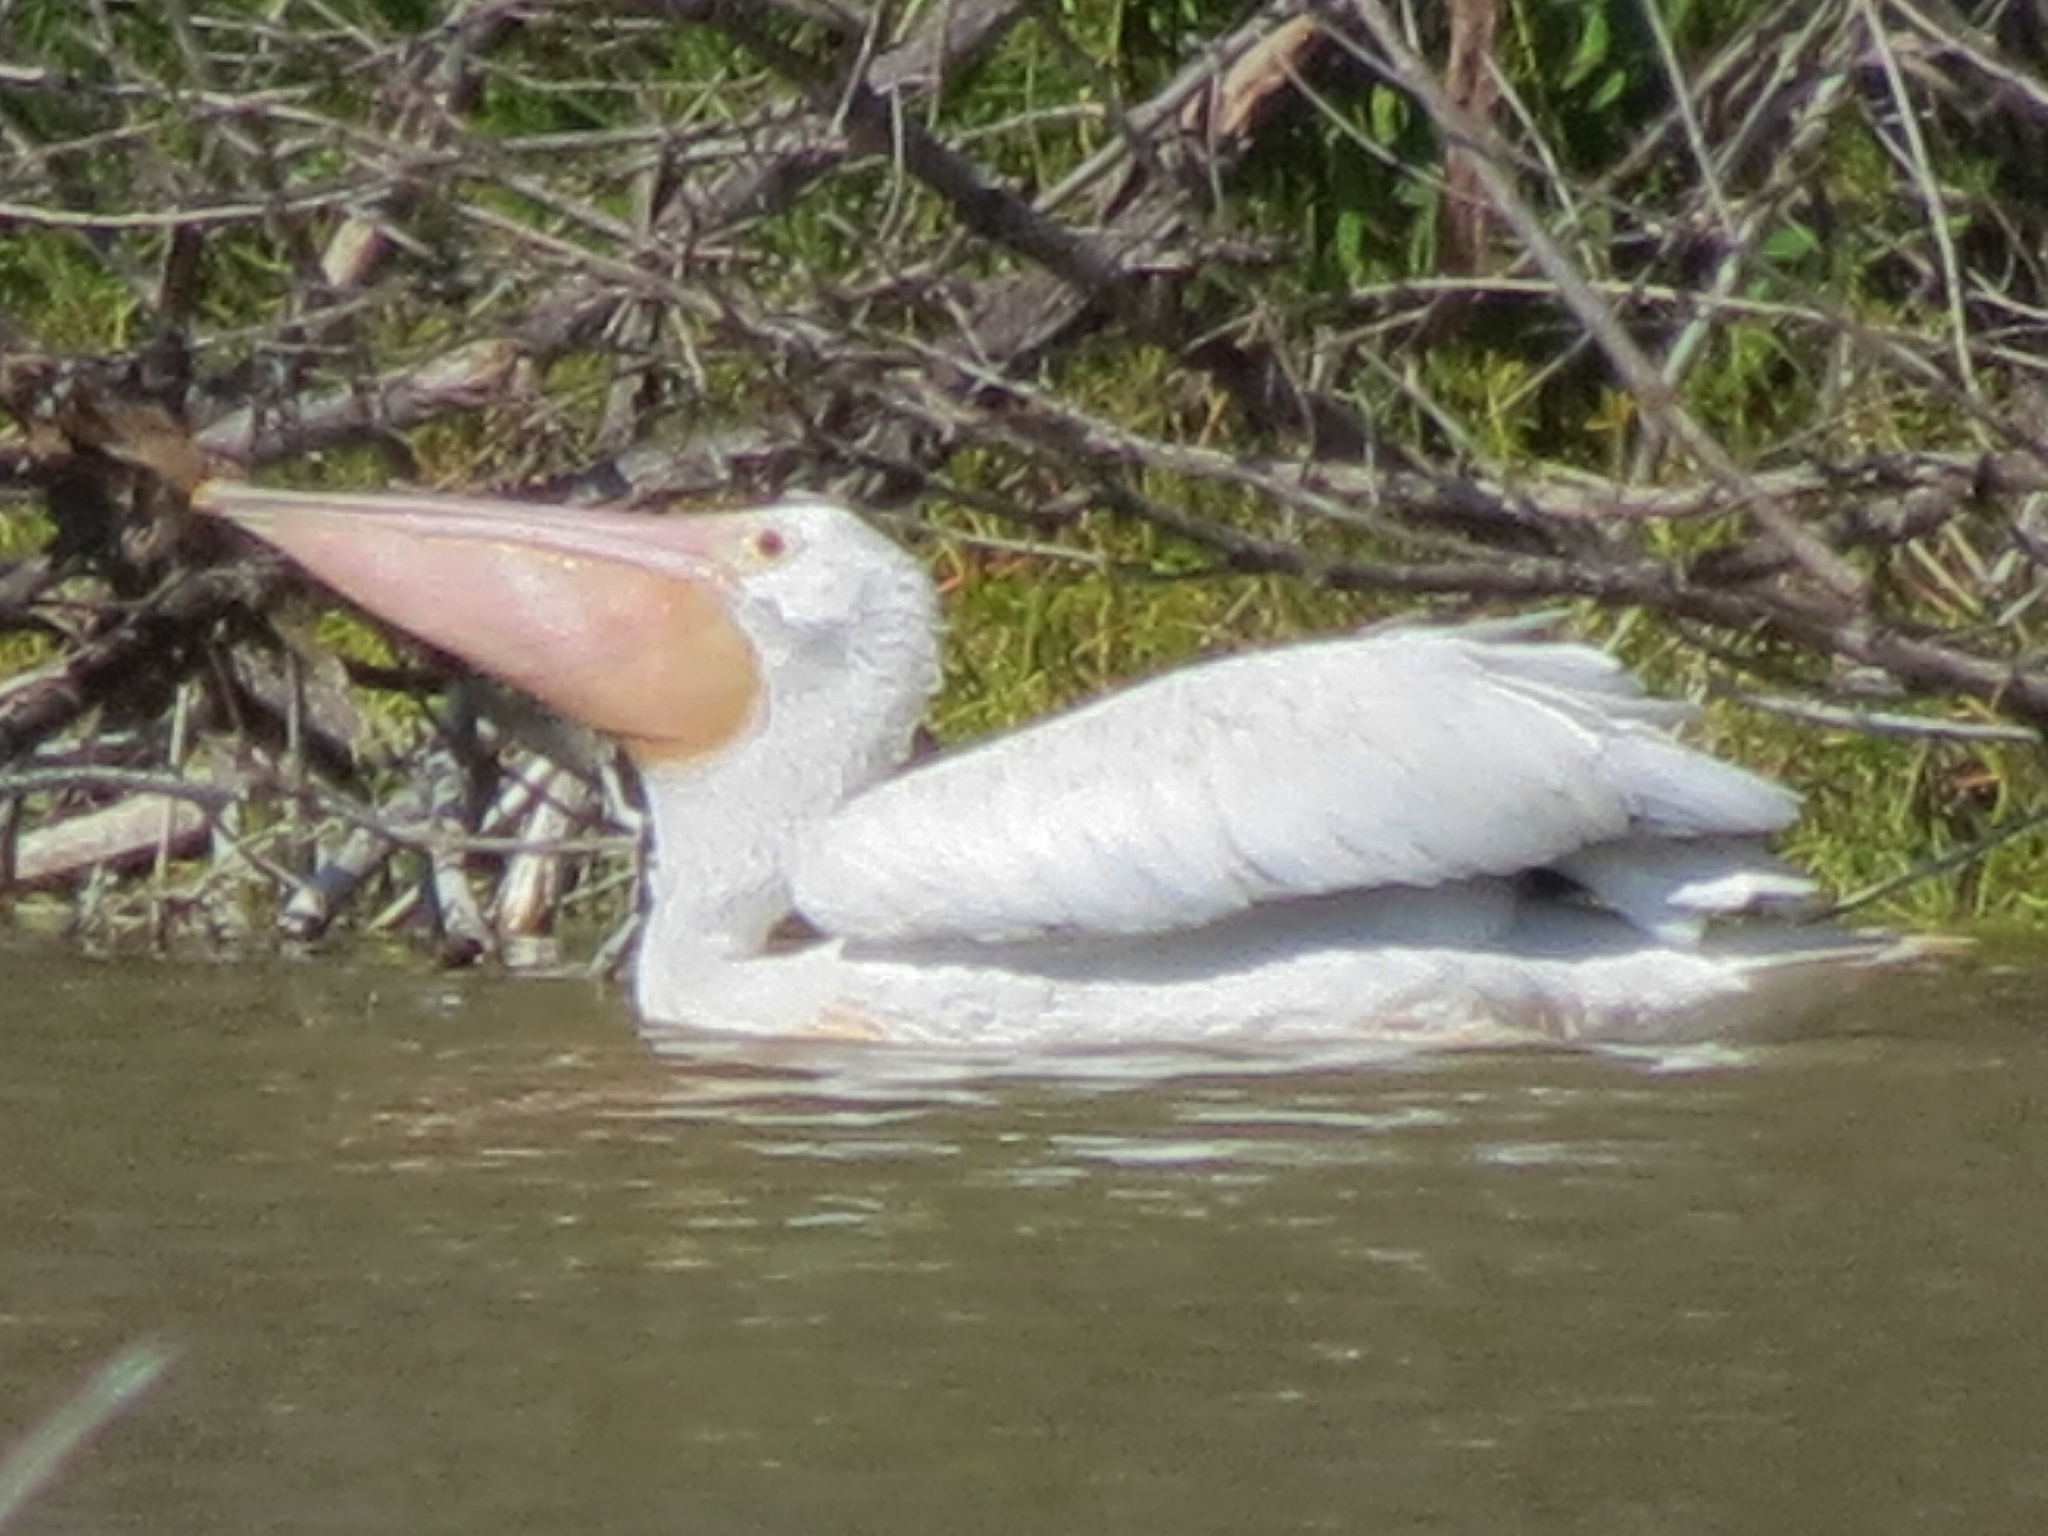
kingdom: Animalia
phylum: Chordata
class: Aves
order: Pelecaniformes
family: Pelecanidae
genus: Pelecanus
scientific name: Pelecanus erythrorhynchos
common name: American white pelican
